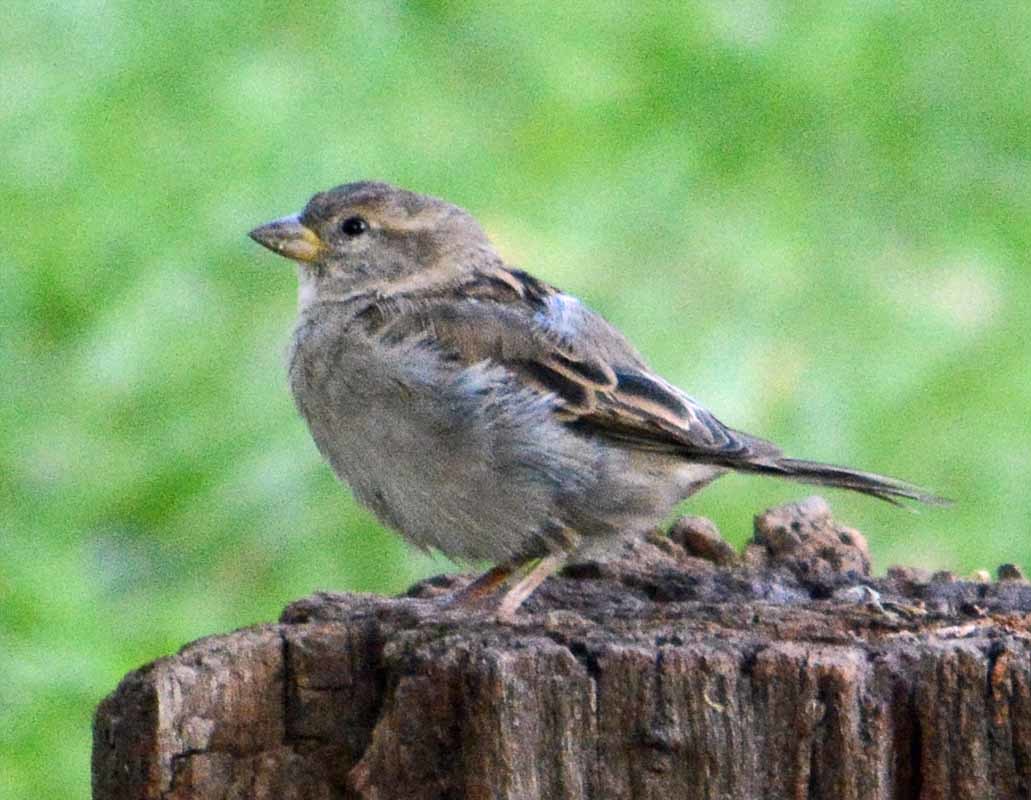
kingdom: Animalia
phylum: Chordata
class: Aves
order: Passeriformes
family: Passeridae
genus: Passer
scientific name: Passer domesticus
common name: House sparrow
